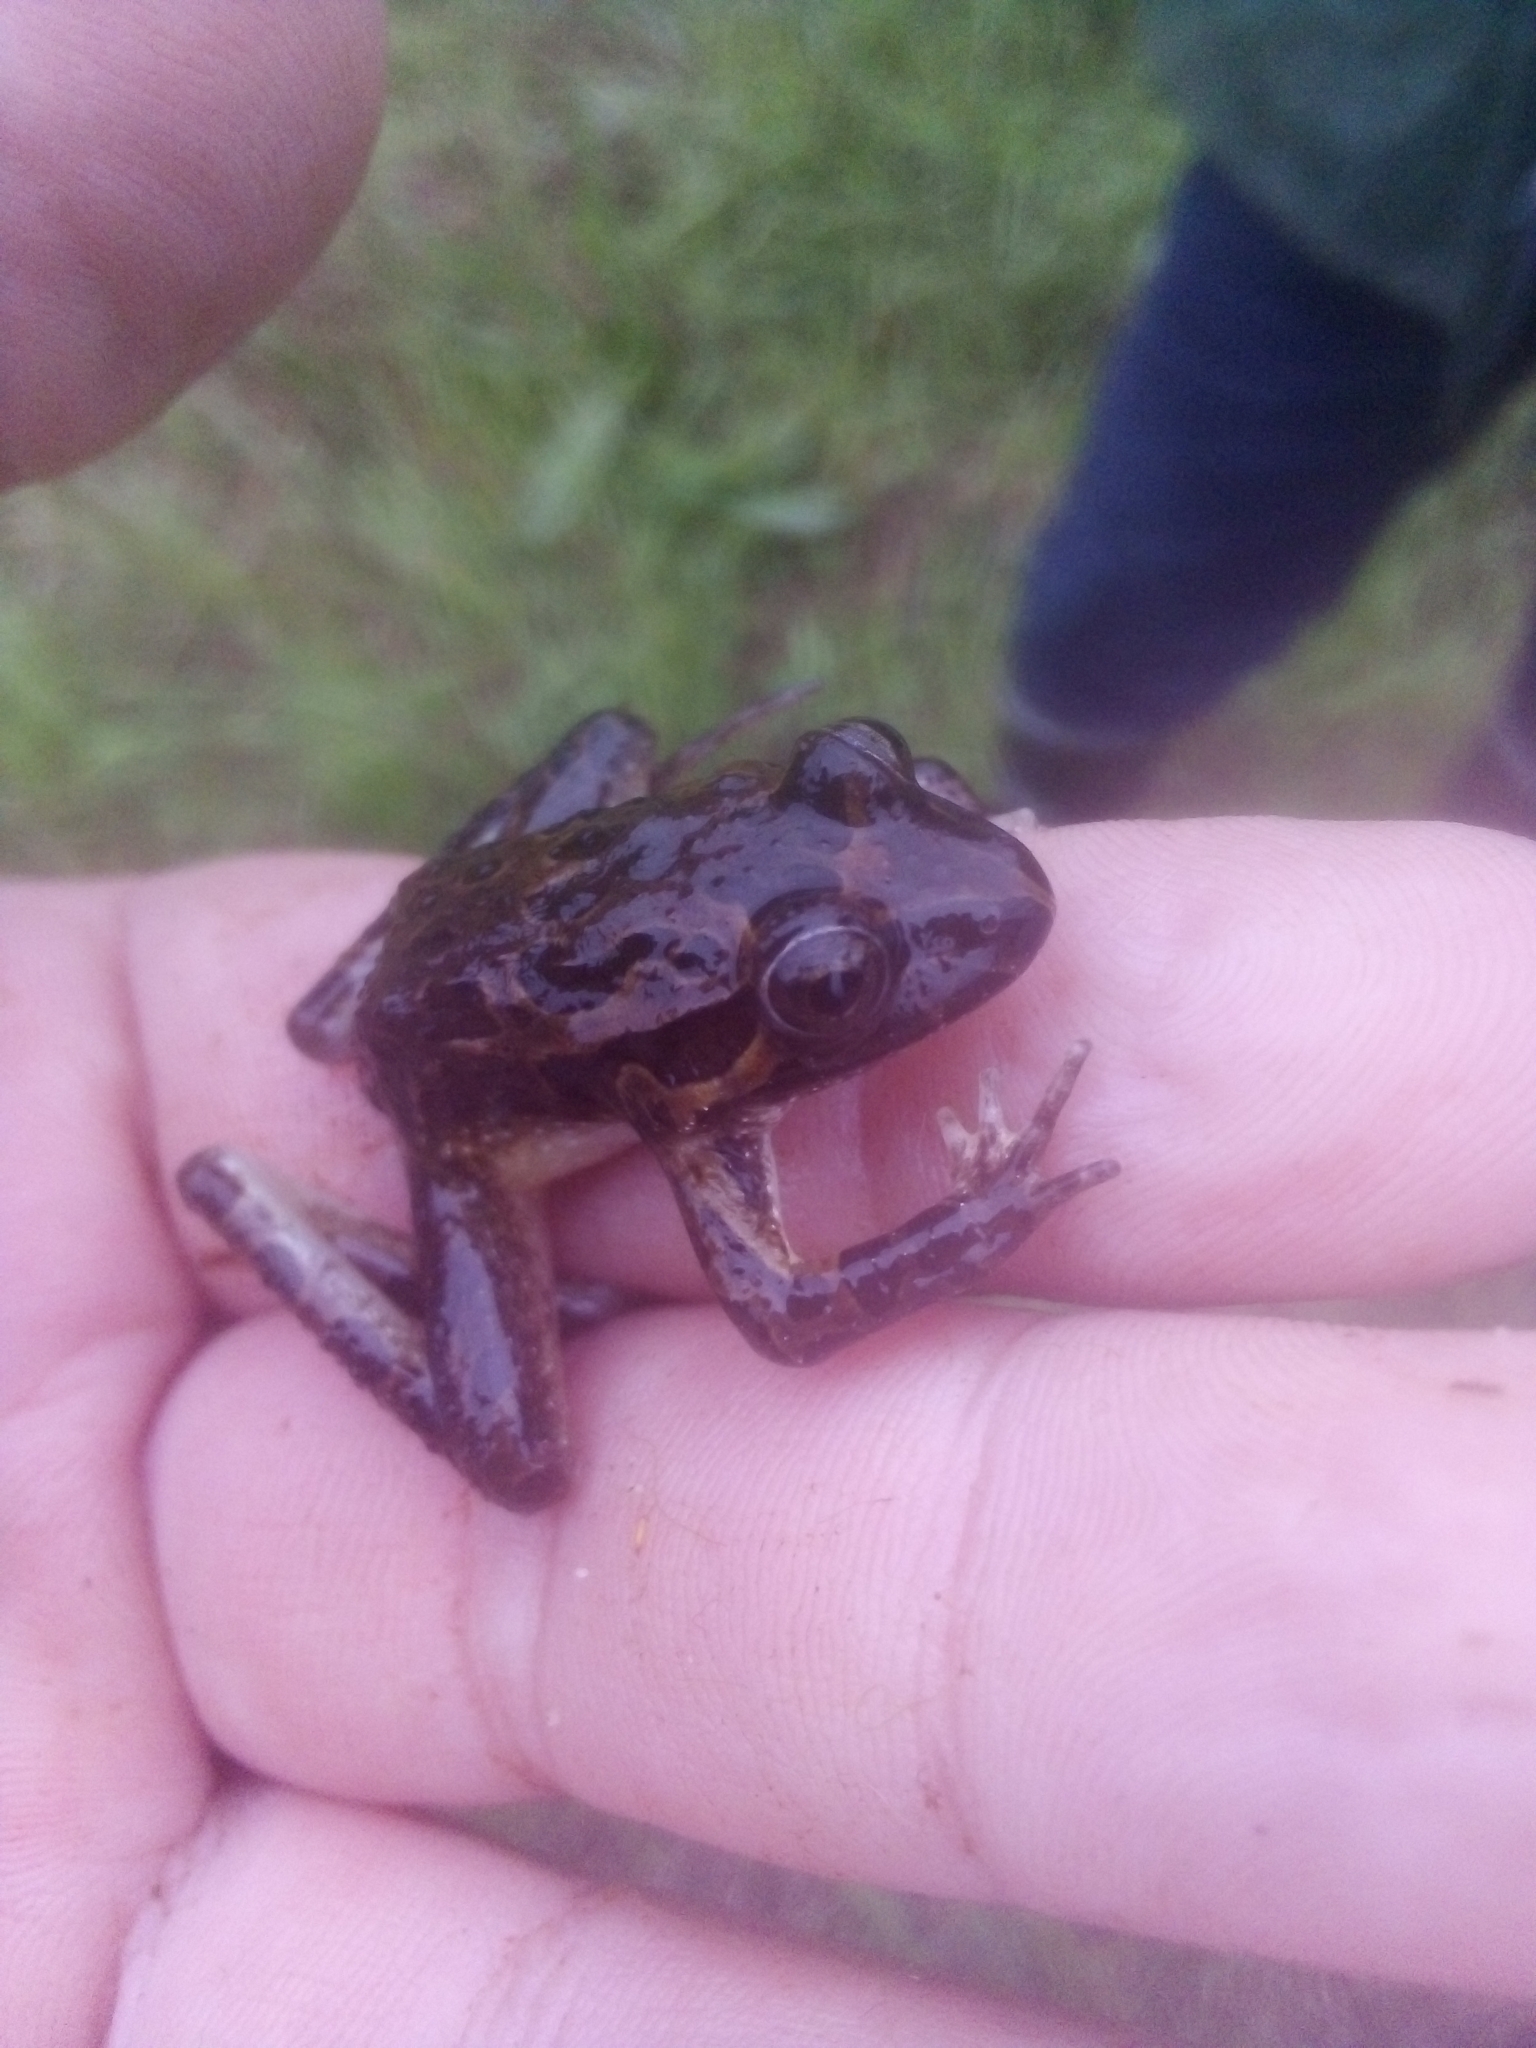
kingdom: Animalia
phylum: Chordata
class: Amphibia
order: Anura
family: Alytidae
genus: Discoglossus
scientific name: Discoglossus galganoi
